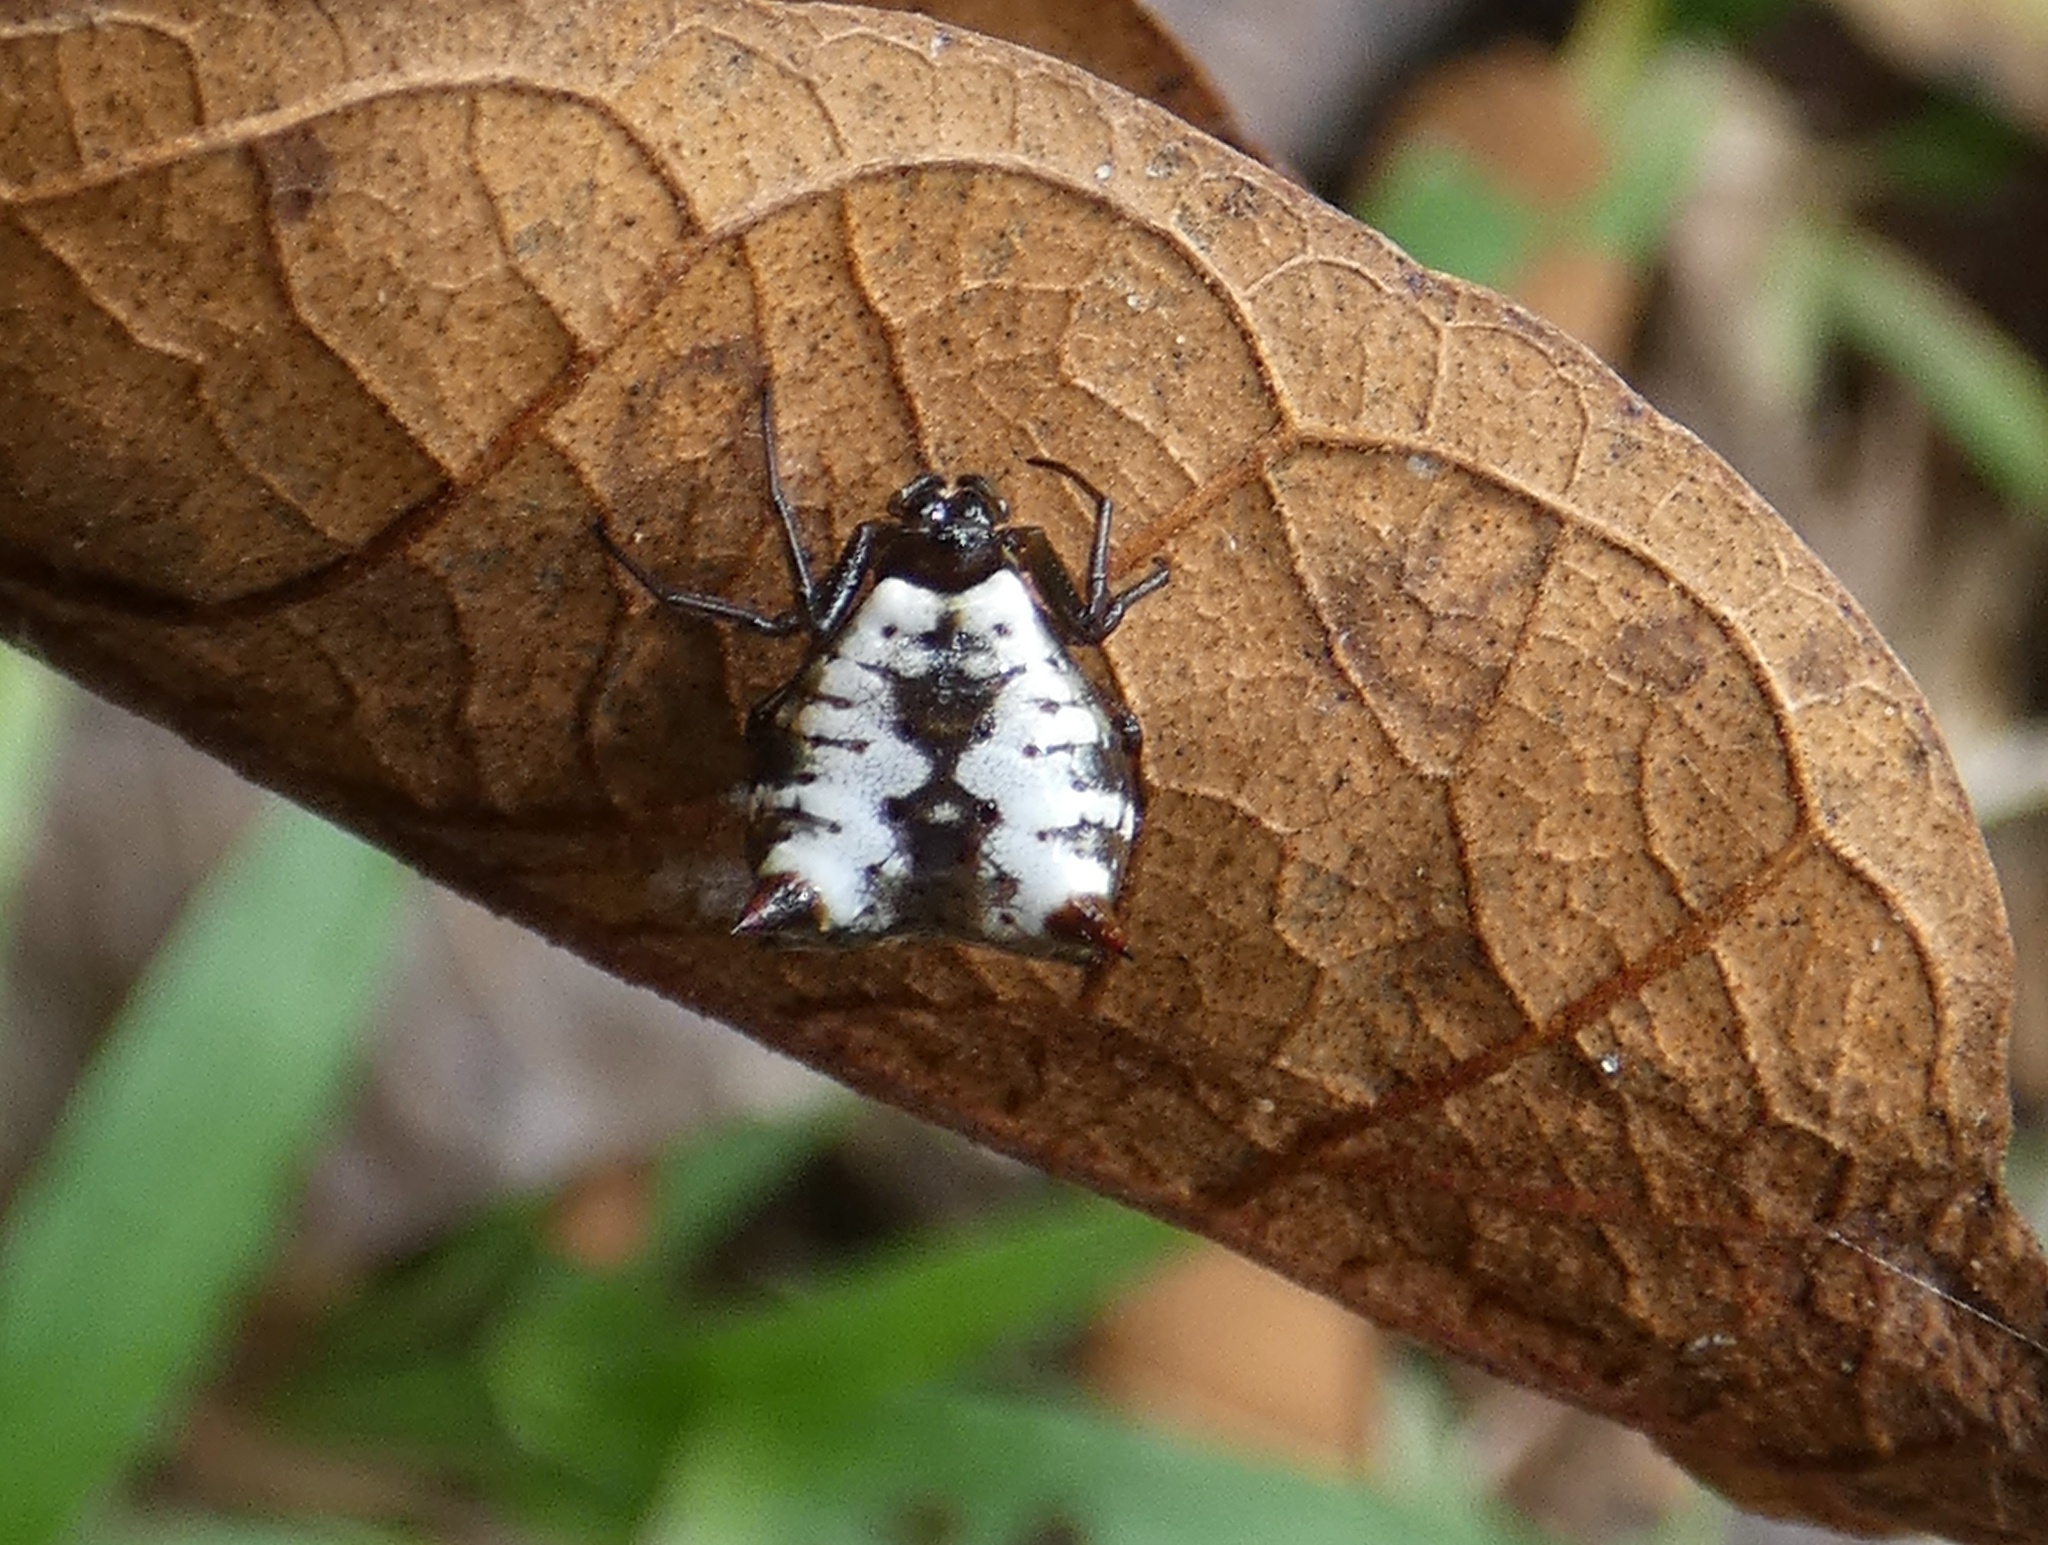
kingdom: Animalia
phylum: Arthropoda
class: Arachnida
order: Araneae
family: Araneidae
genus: Micrathena
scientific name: Micrathena saccata
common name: Orb weavers
